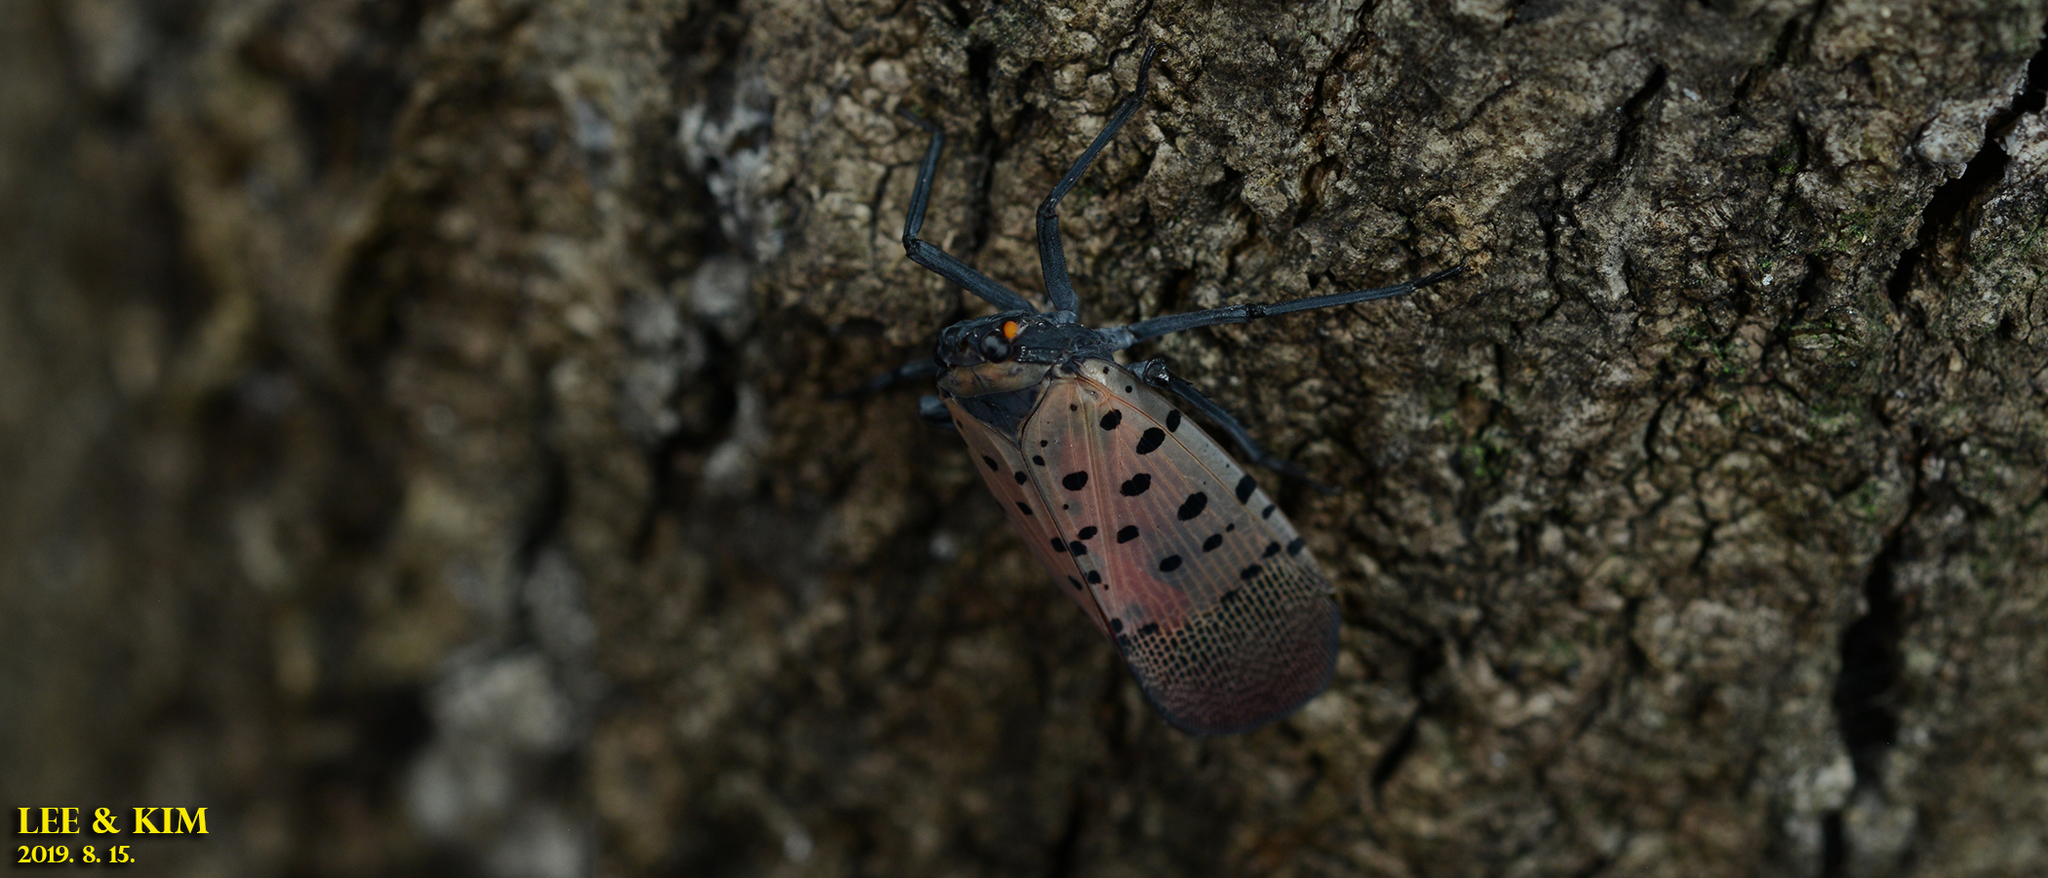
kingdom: Animalia
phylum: Arthropoda
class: Insecta
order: Hemiptera
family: Fulgoridae
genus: Lycorma
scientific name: Lycorma delicatula
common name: Spotted lanternfly
